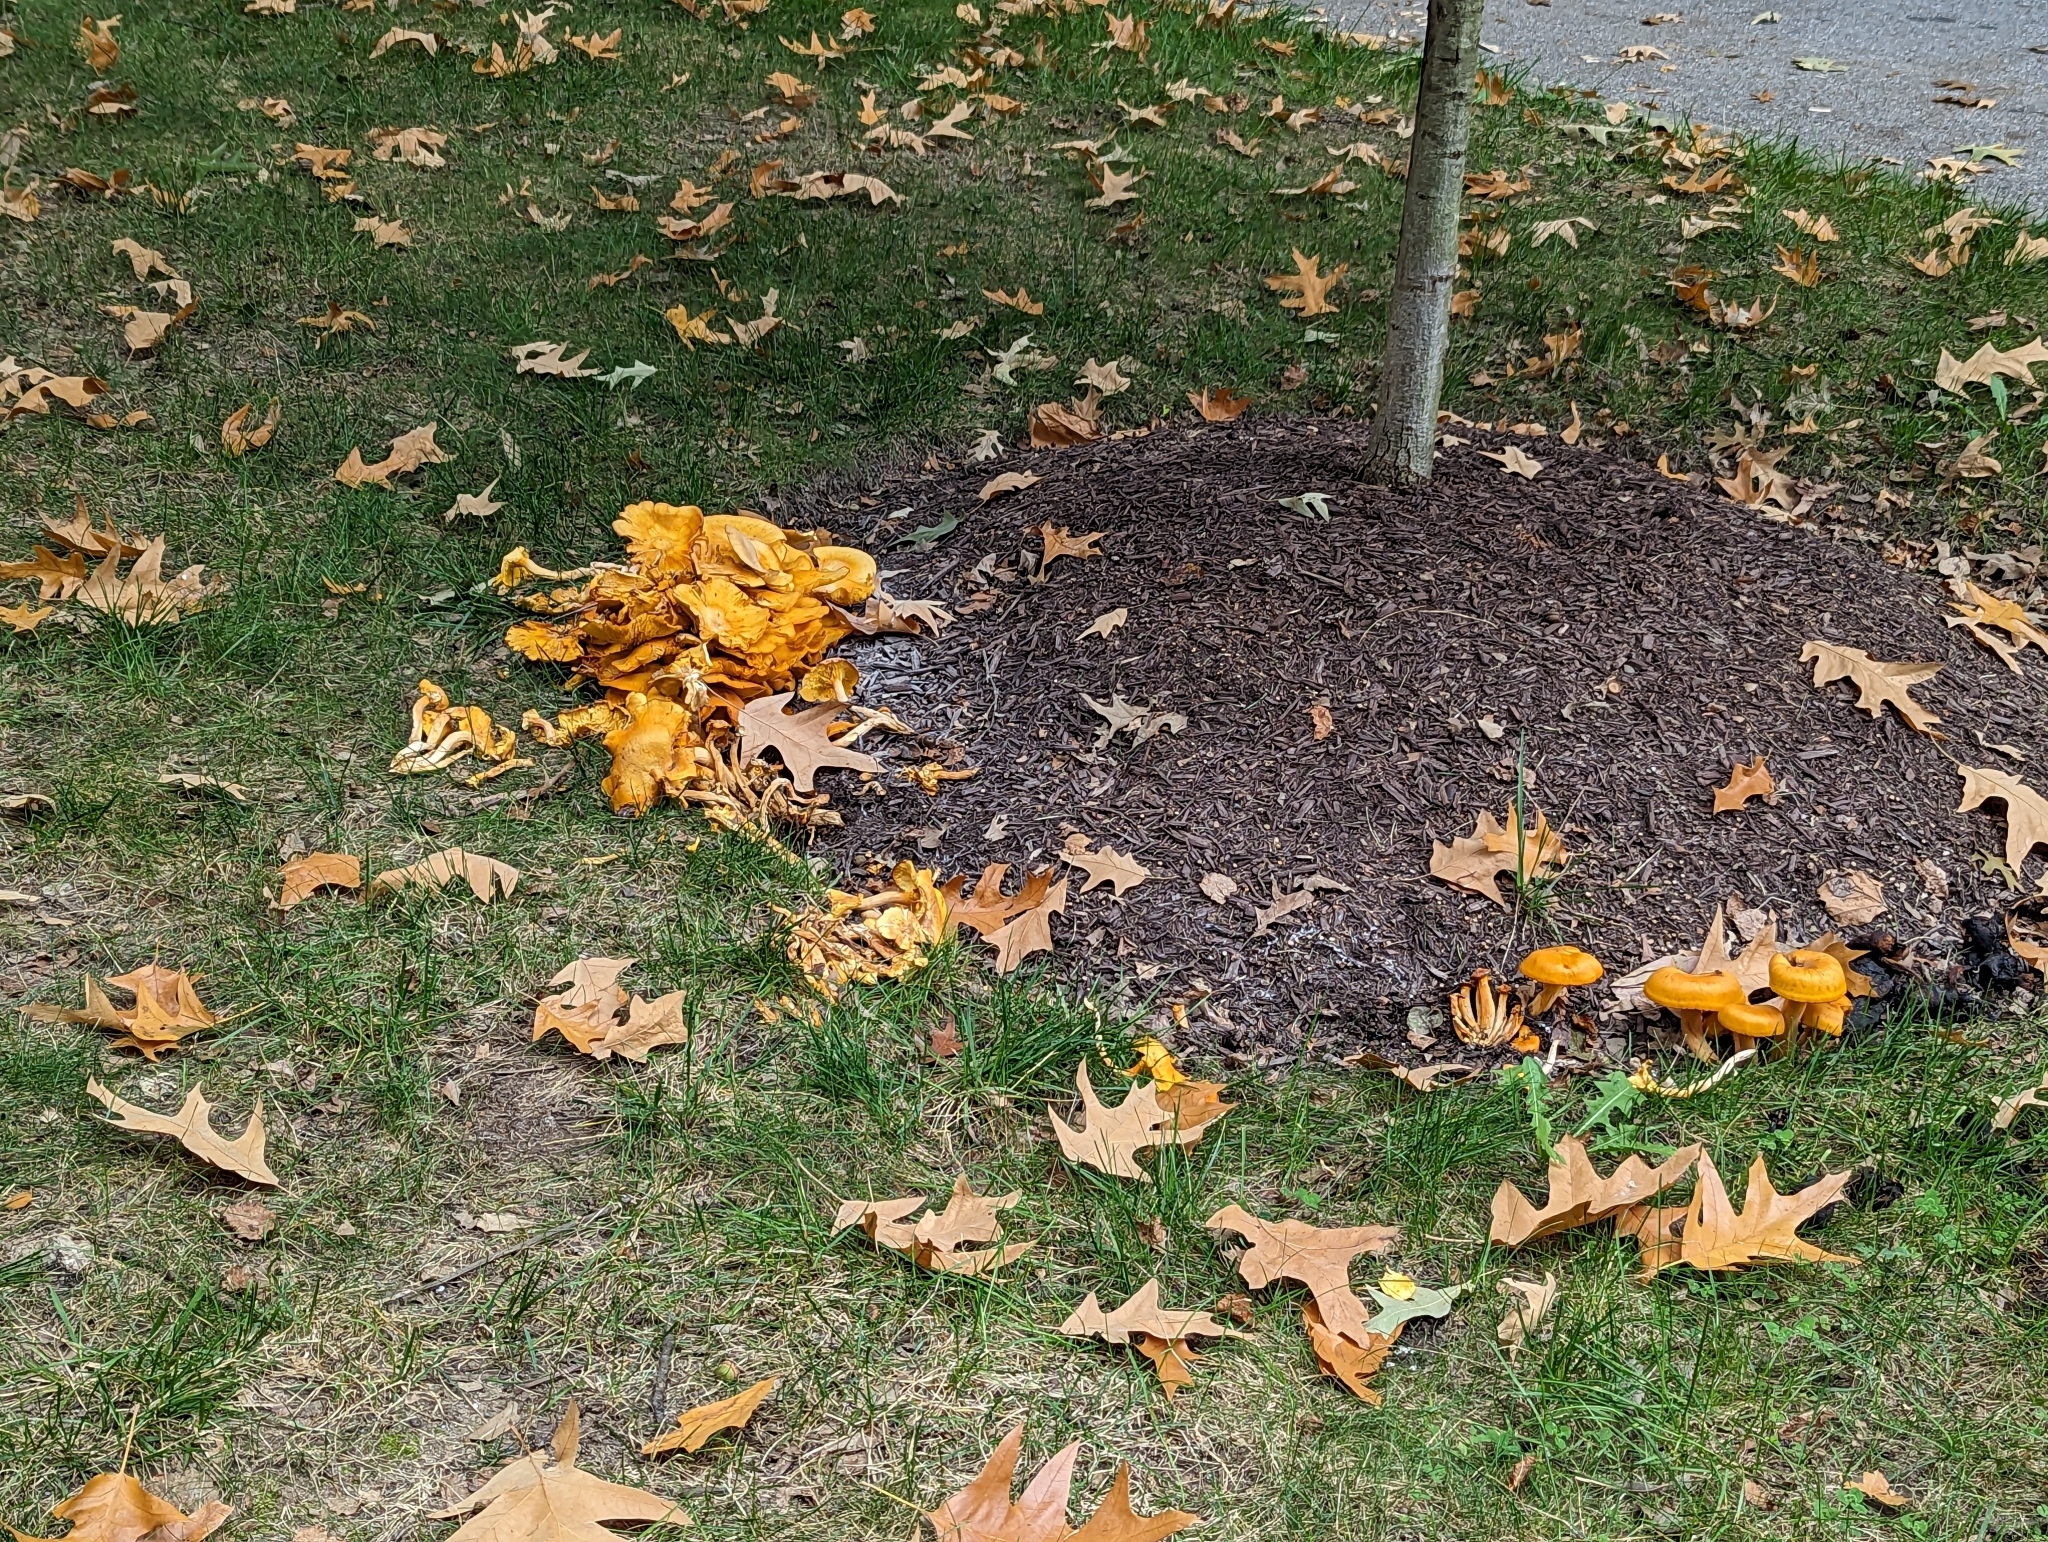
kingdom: Fungi
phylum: Basidiomycota
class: Agaricomycetes
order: Agaricales
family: Omphalotaceae
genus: Omphalotus
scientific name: Omphalotus illudens
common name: Jack o lantern
